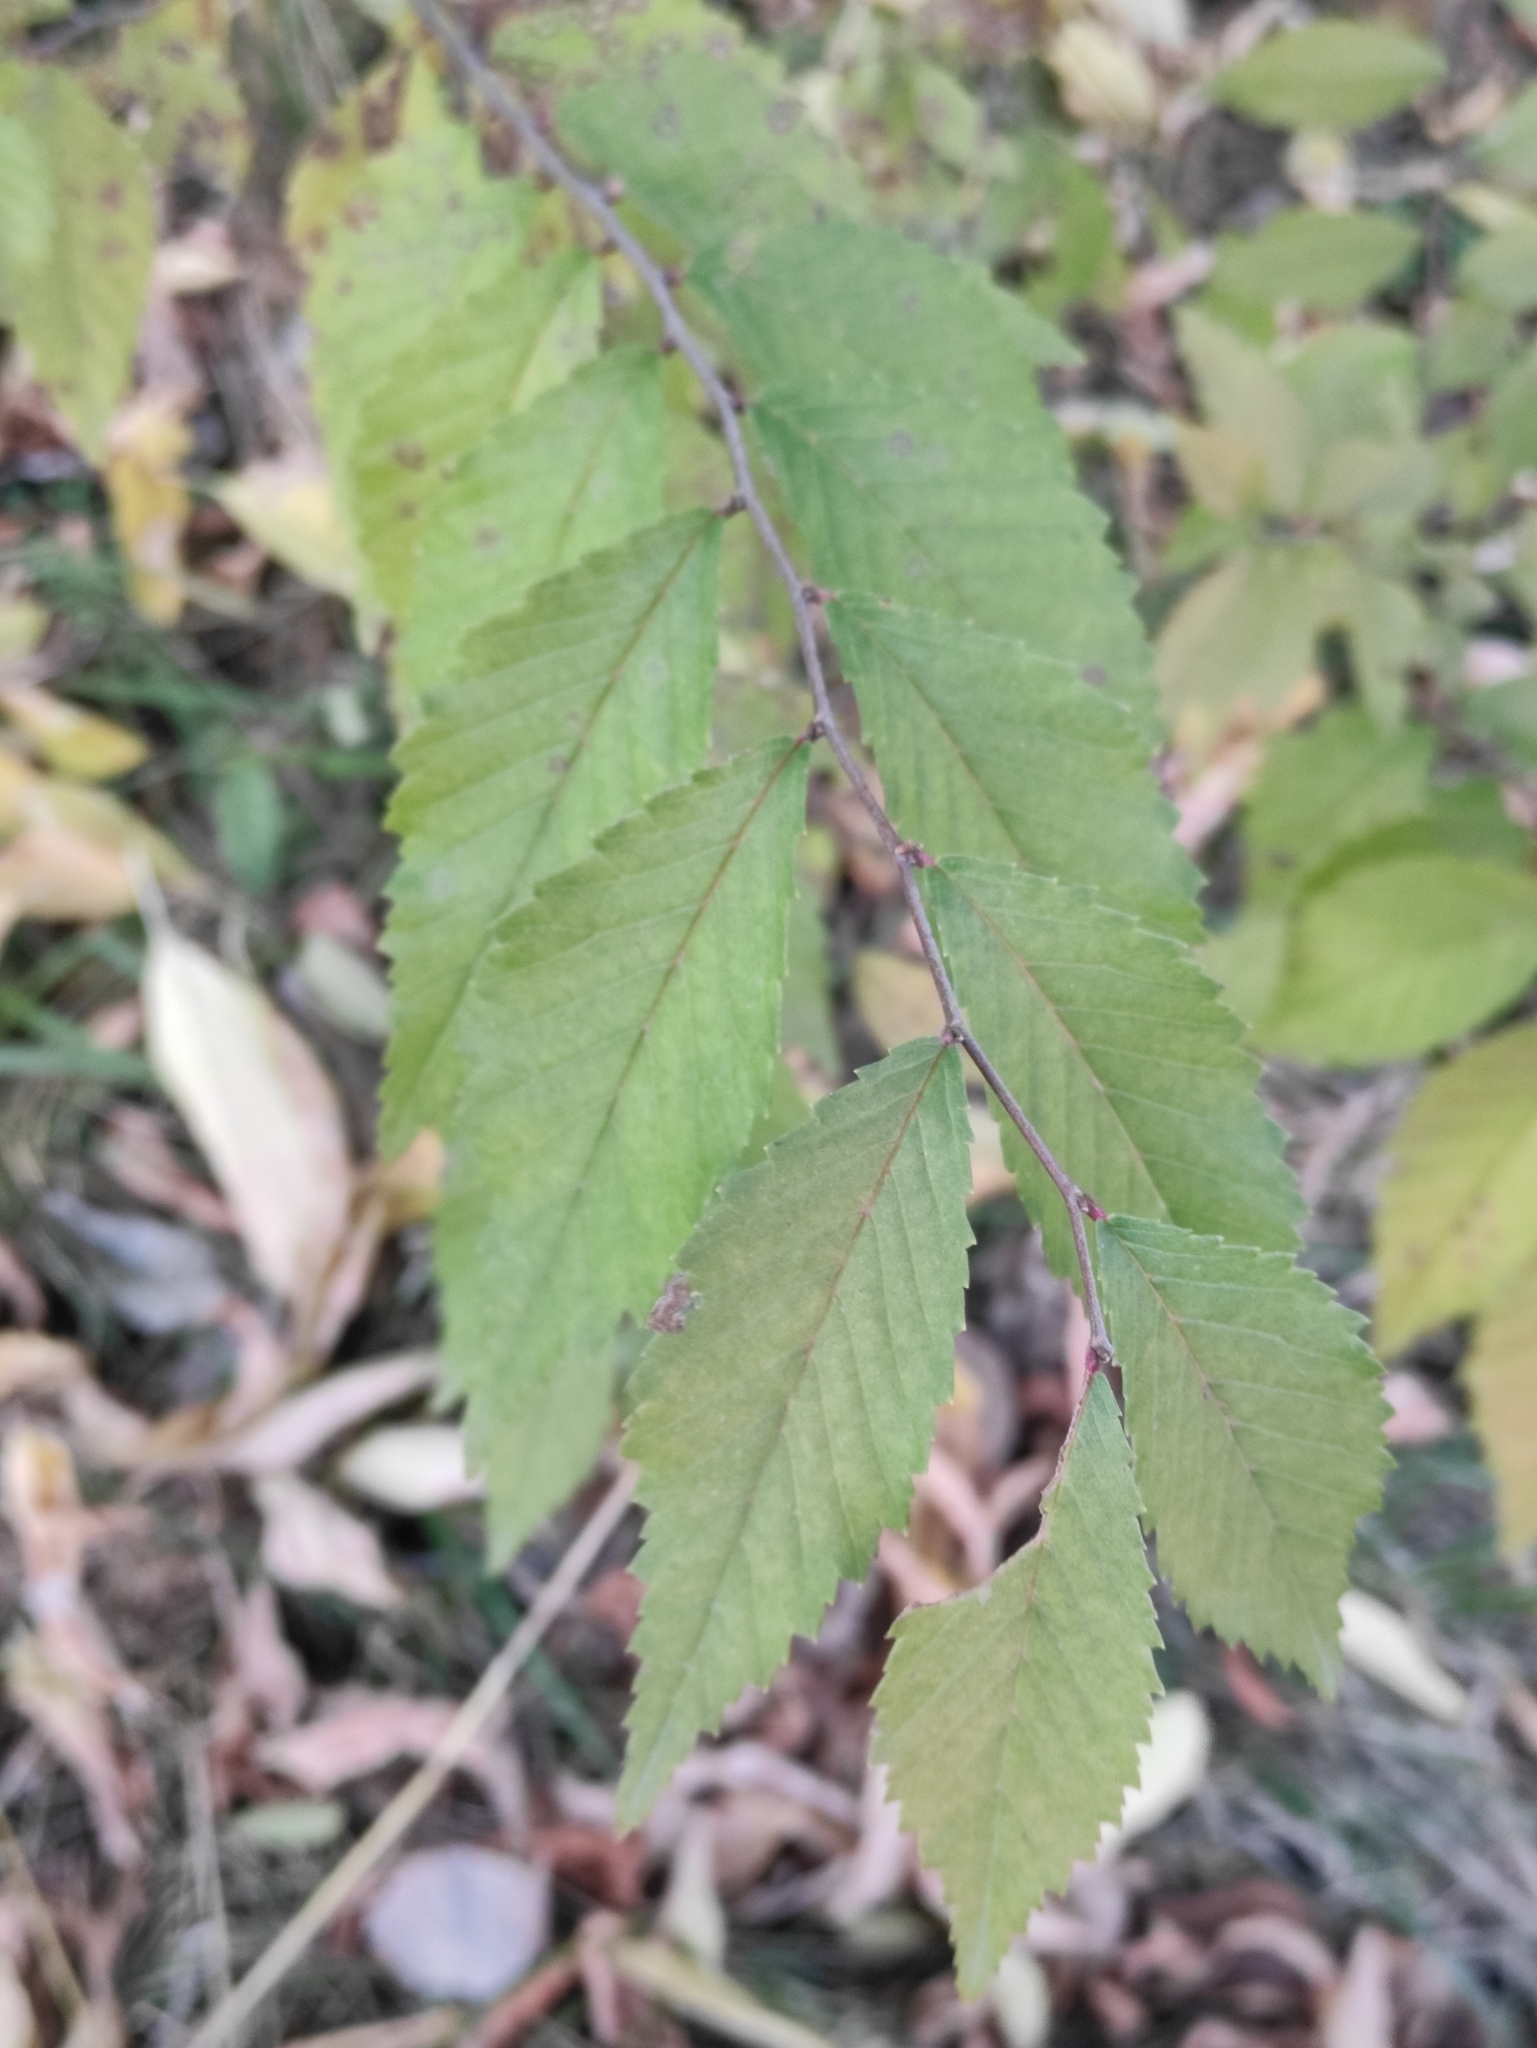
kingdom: Plantae
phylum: Tracheophyta
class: Magnoliopsida
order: Rosales
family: Ulmaceae
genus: Ulmus
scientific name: Ulmus pumila
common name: Siberian elm
